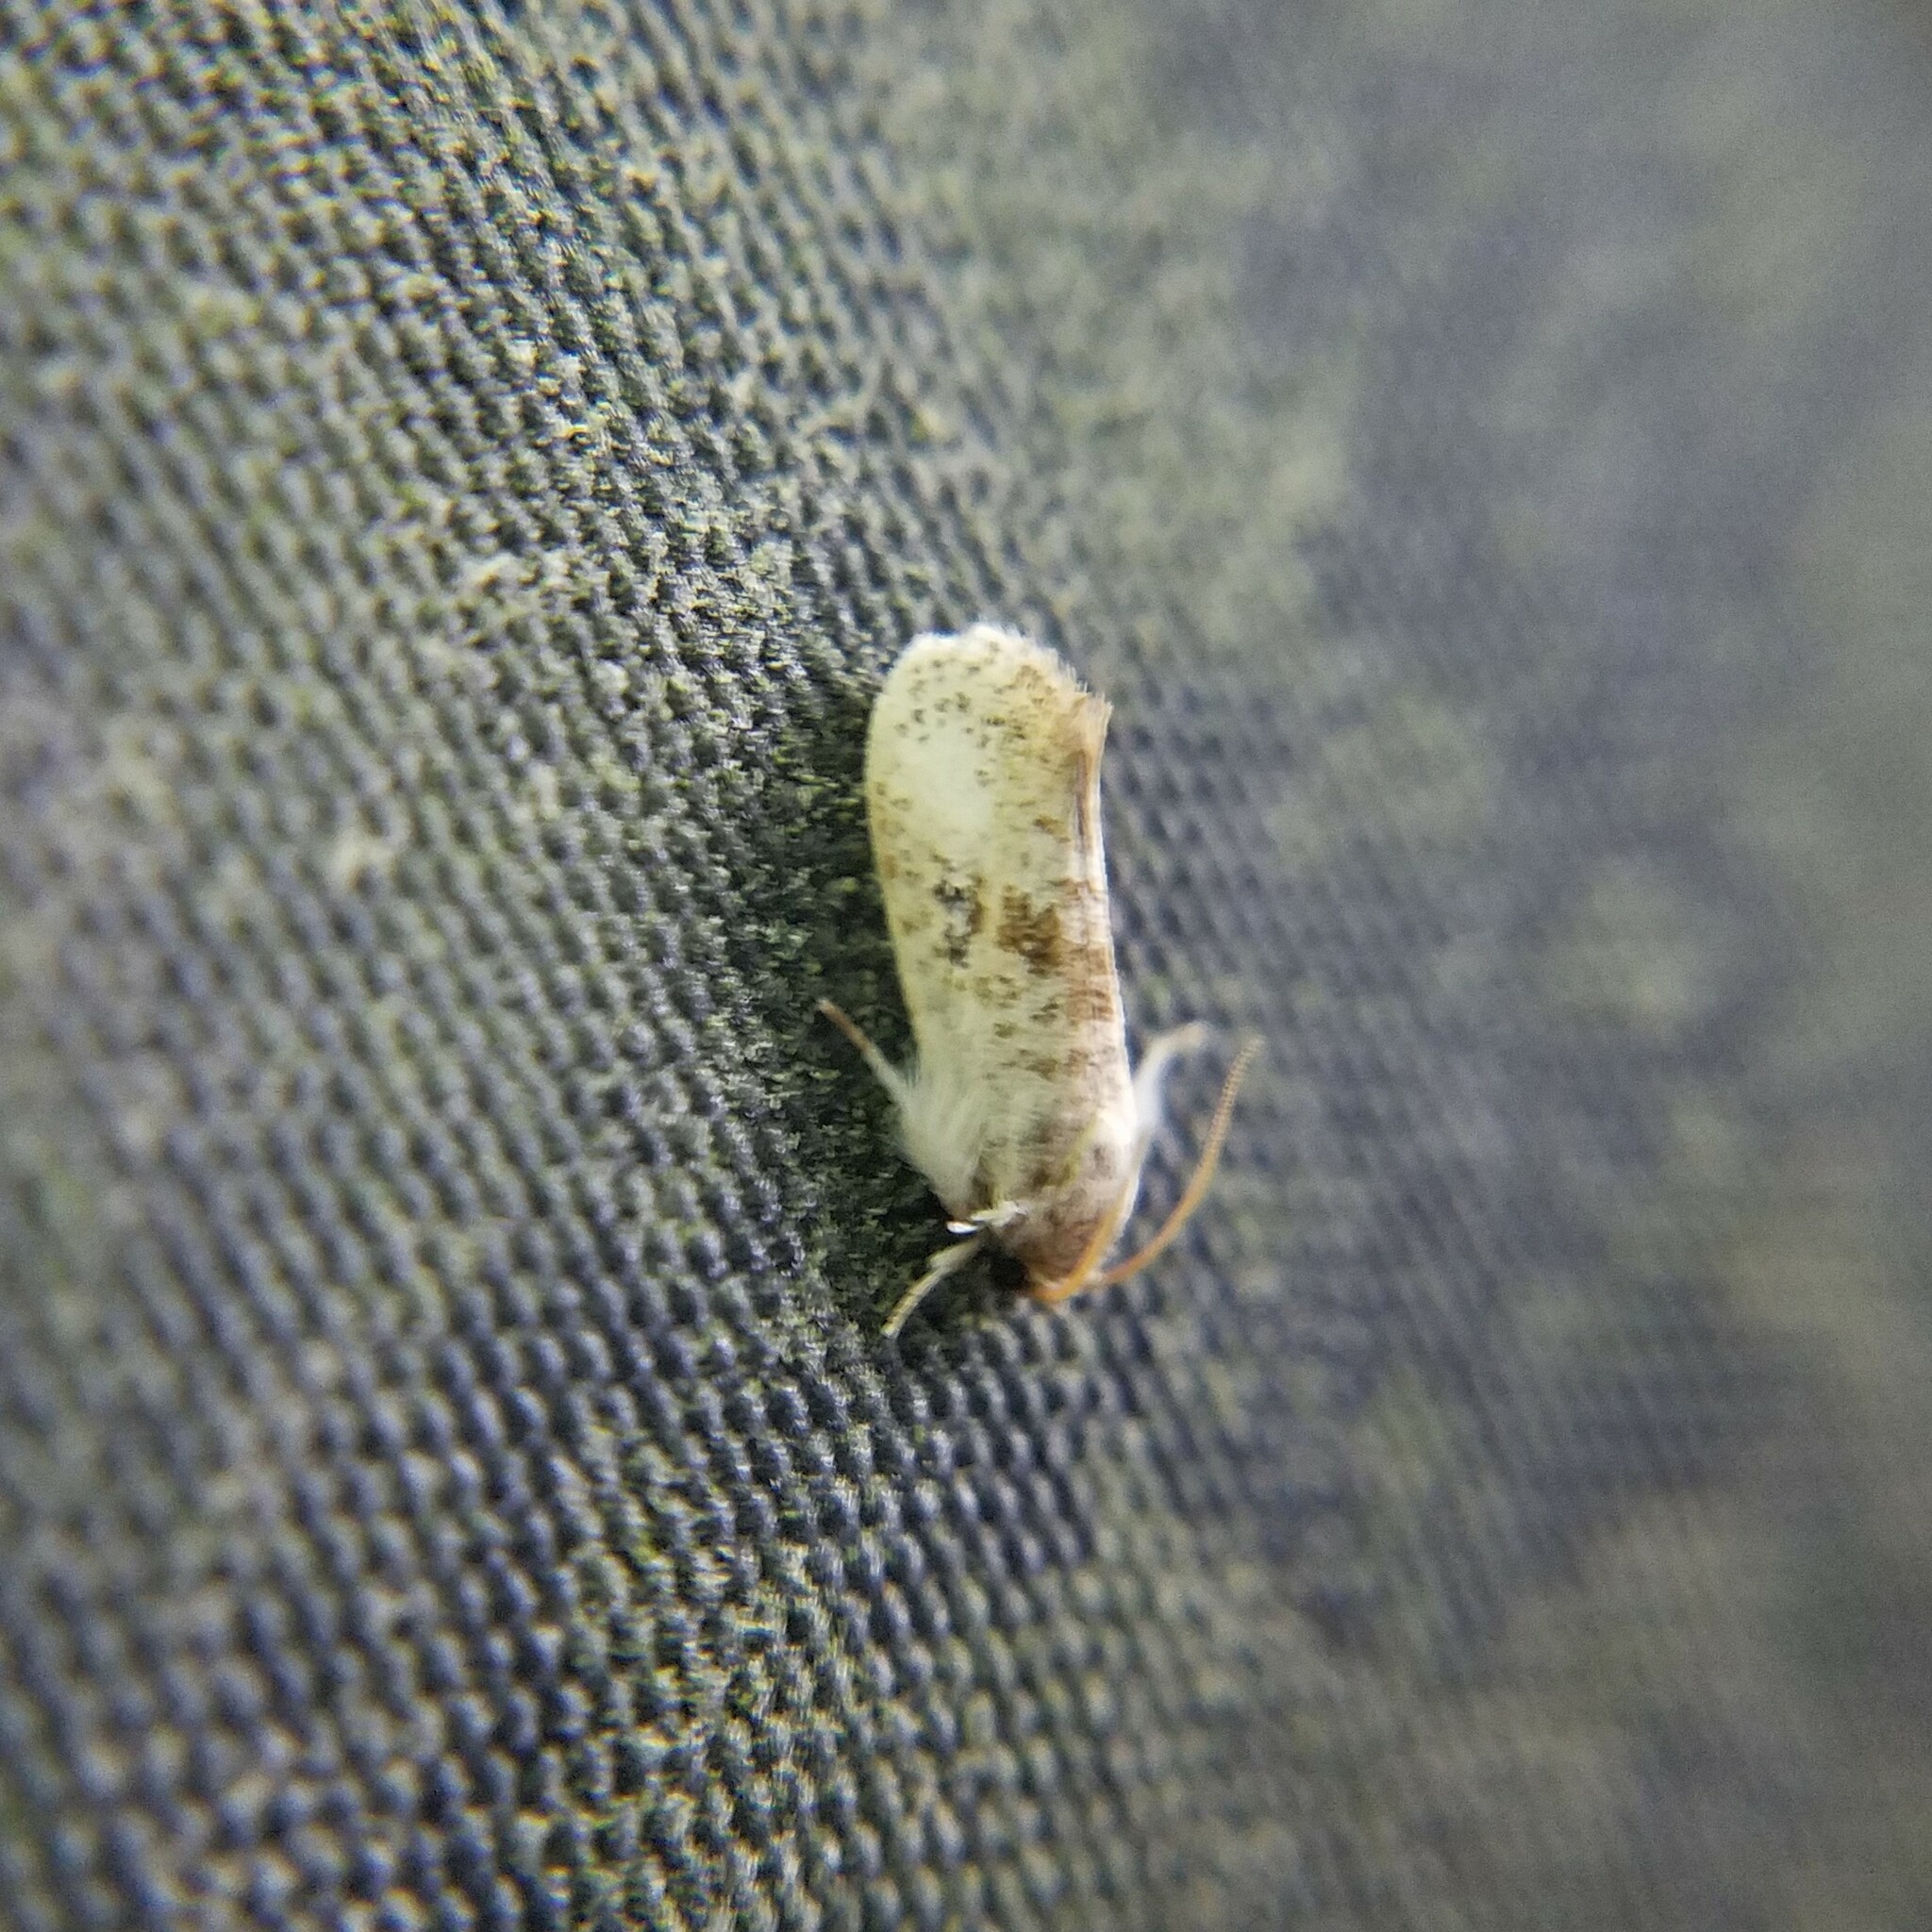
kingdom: Animalia
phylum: Arthropoda
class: Insecta
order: Lepidoptera
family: Tineidae
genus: Acrolophus
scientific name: Acrolophus mycetophagus
